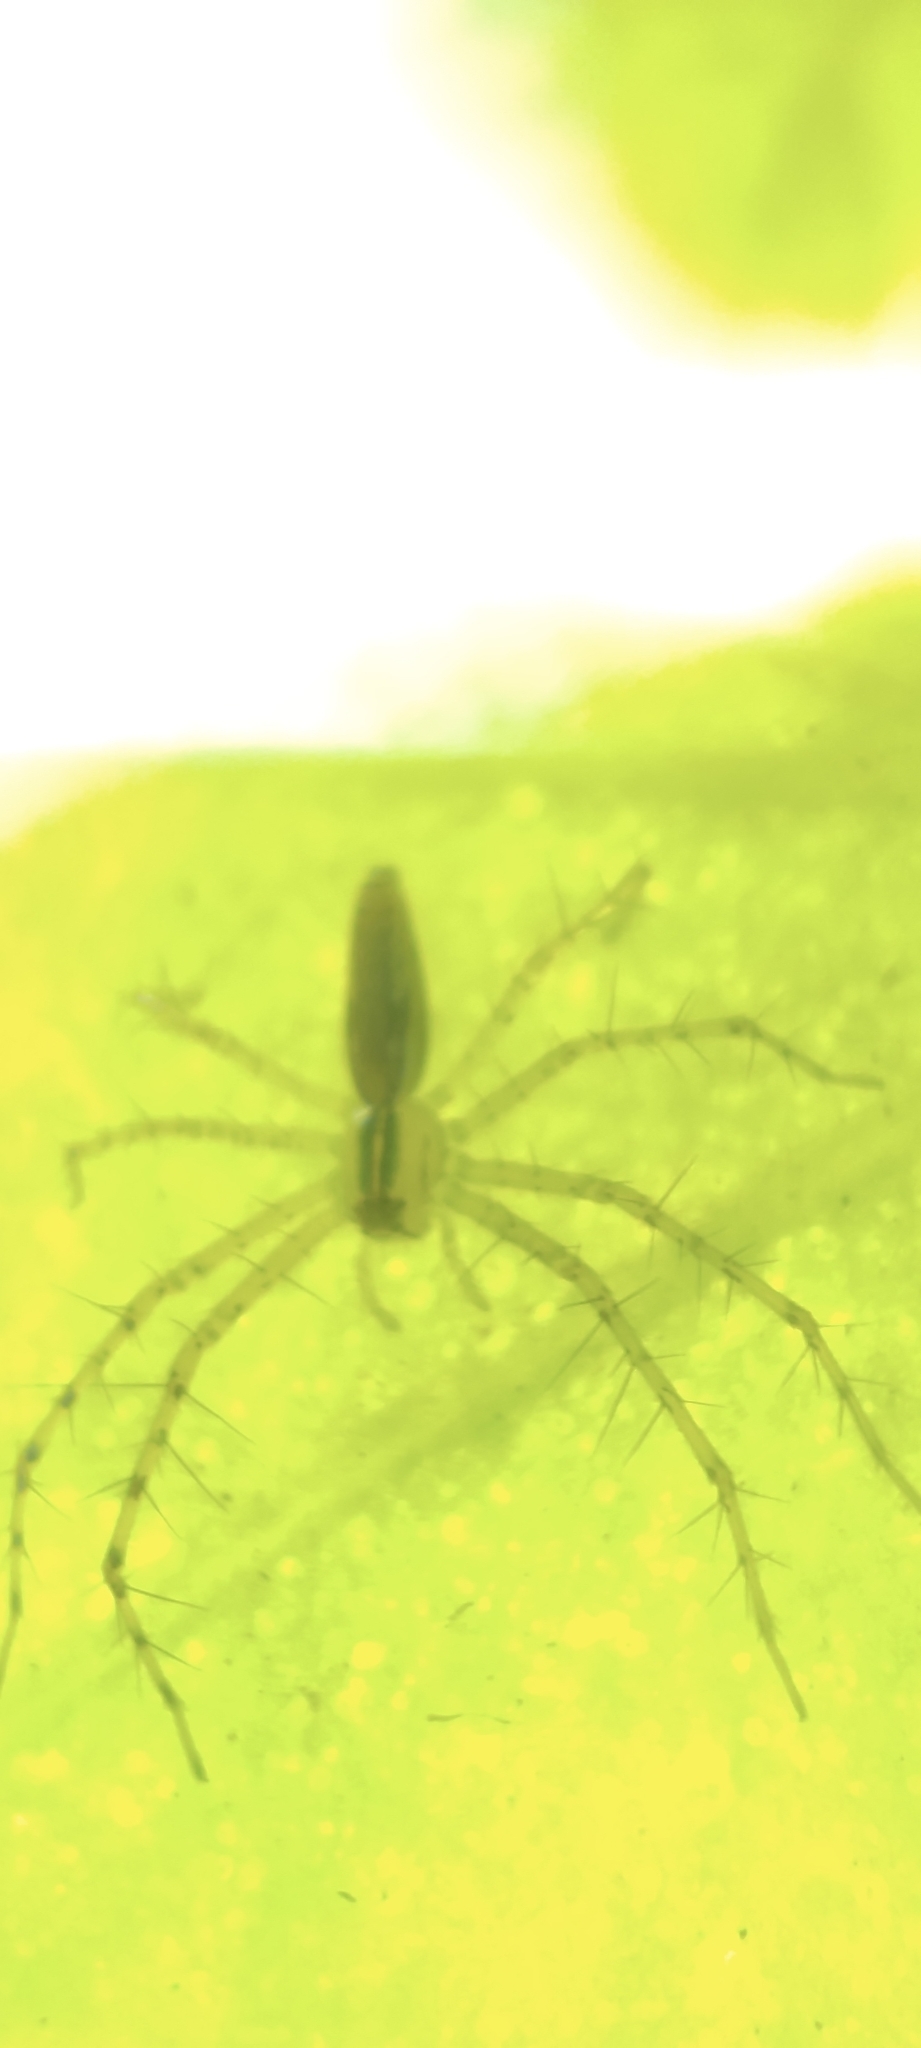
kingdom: Animalia
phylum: Arthropoda
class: Arachnida
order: Araneae
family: Oxyopidae
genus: Peucetia
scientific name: Peucetia rubrolineata
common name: Lynx spiders
